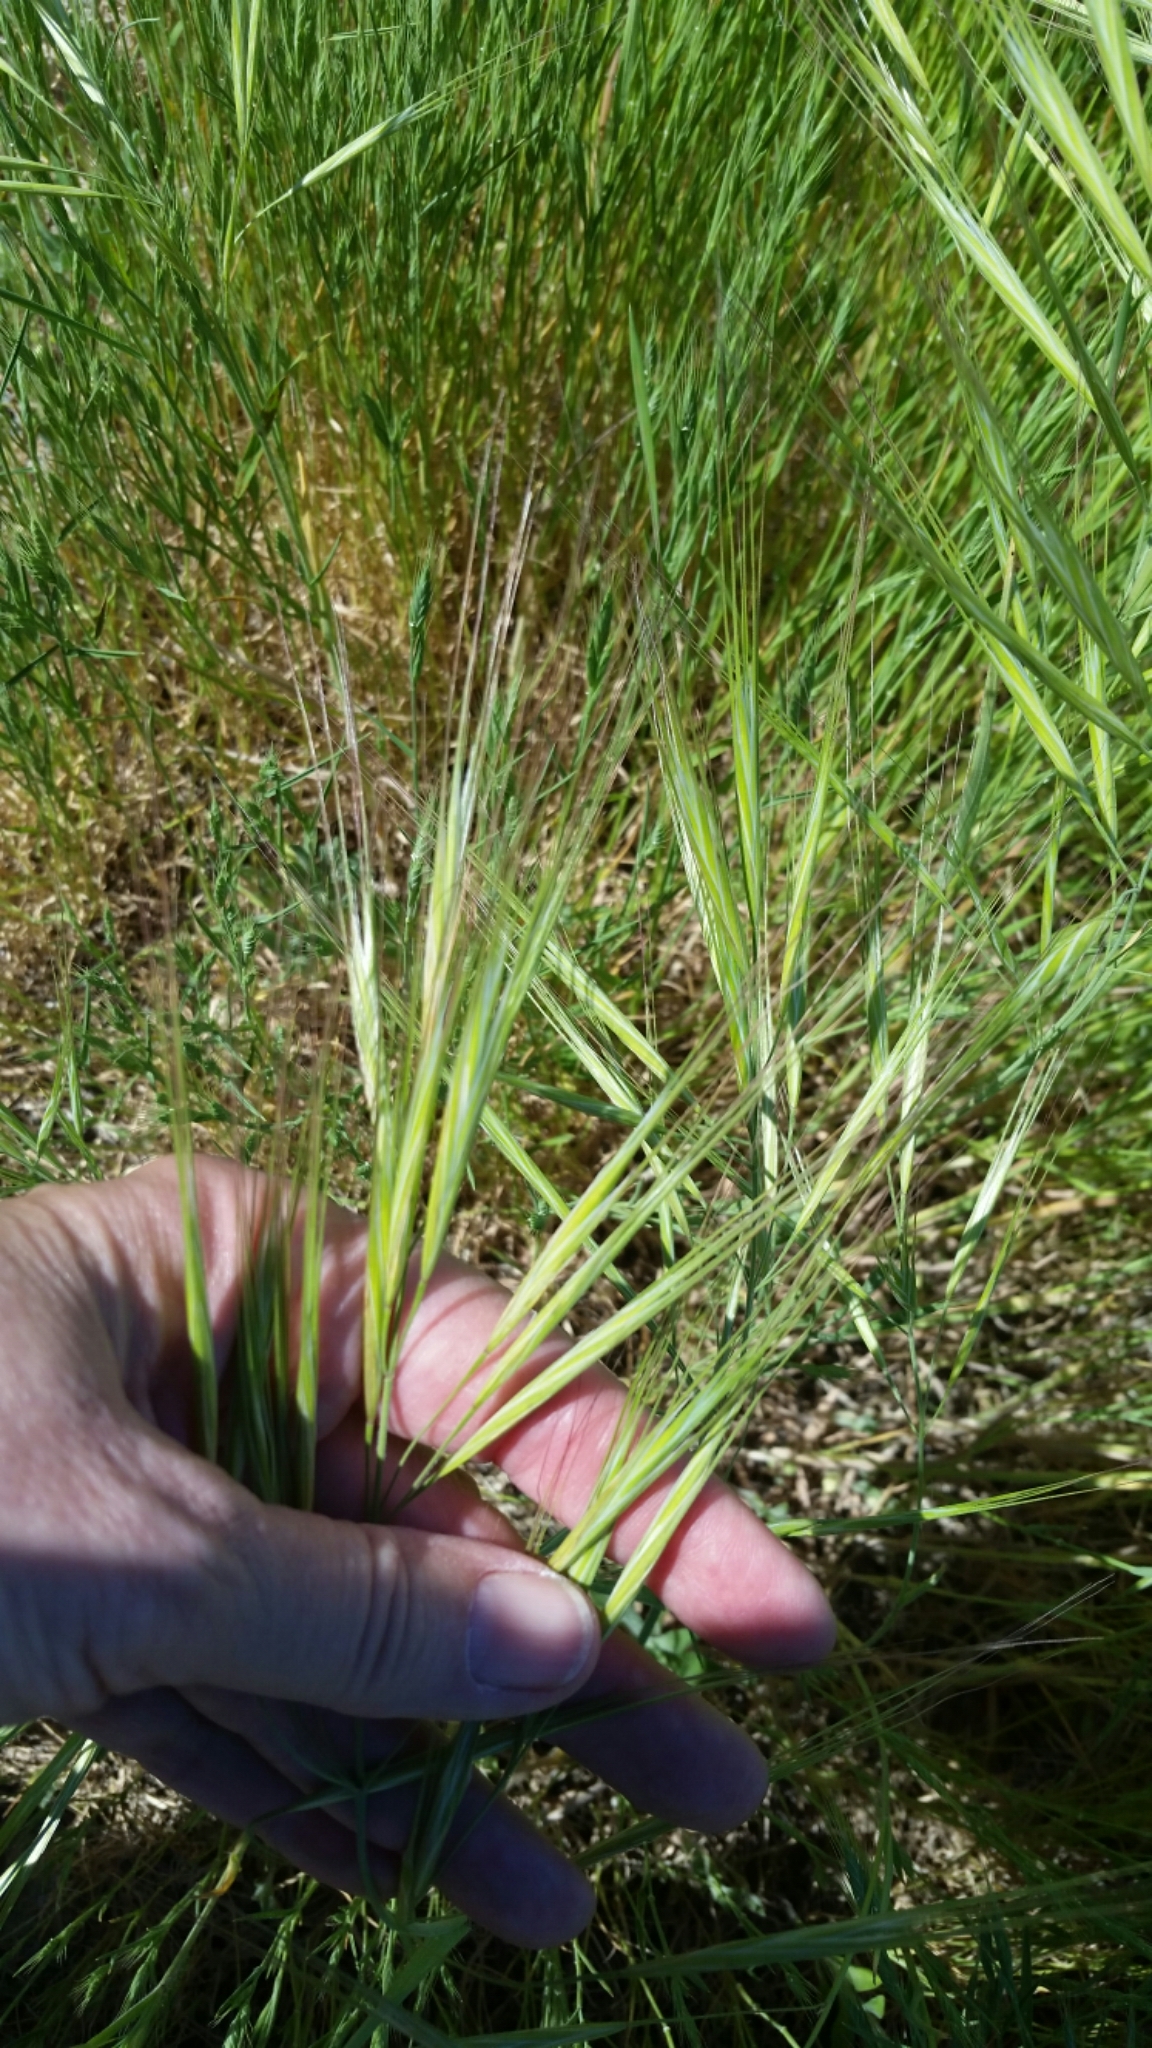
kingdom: Plantae
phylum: Tracheophyta
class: Liliopsida
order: Poales
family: Poaceae
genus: Bromus
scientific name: Bromus diandrus
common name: Ripgut brome
